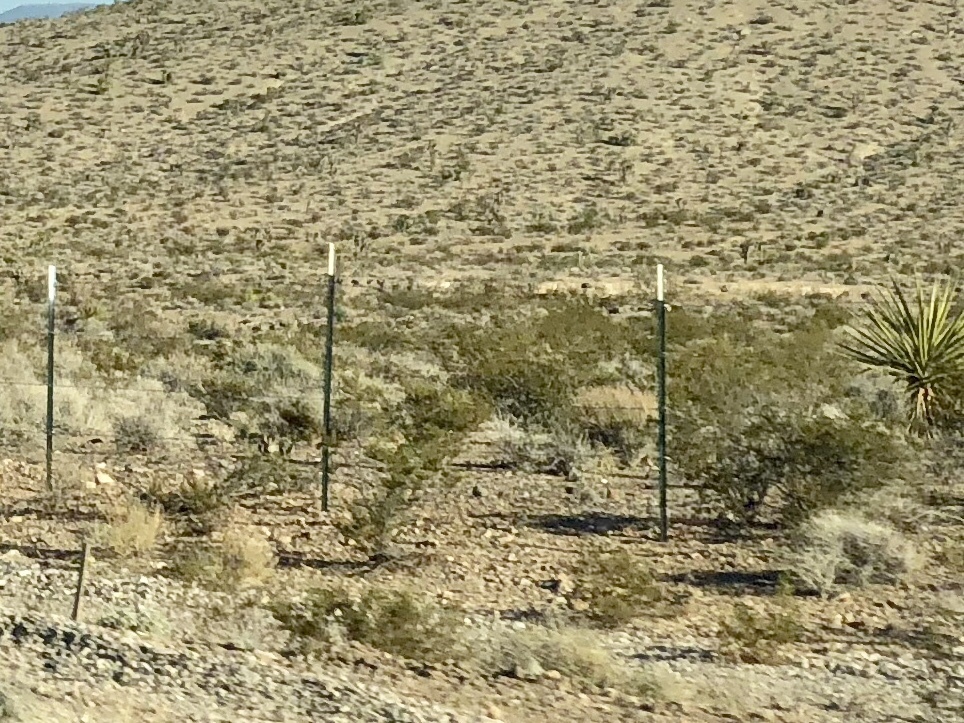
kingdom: Plantae
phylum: Tracheophyta
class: Magnoliopsida
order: Zygophyllales
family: Zygophyllaceae
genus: Larrea
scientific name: Larrea tridentata
